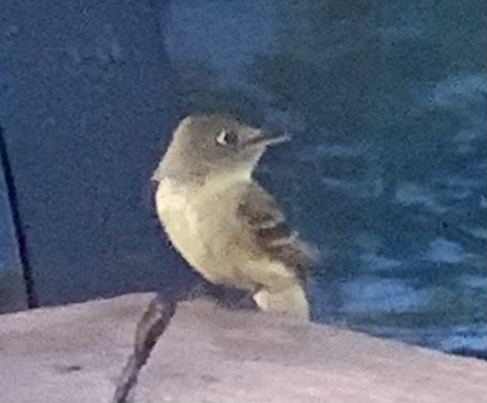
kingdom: Animalia
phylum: Chordata
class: Aves
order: Passeriformes
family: Tyrannidae
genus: Empidonax
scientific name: Empidonax difficilis
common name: Pacific-slope flycatcher
